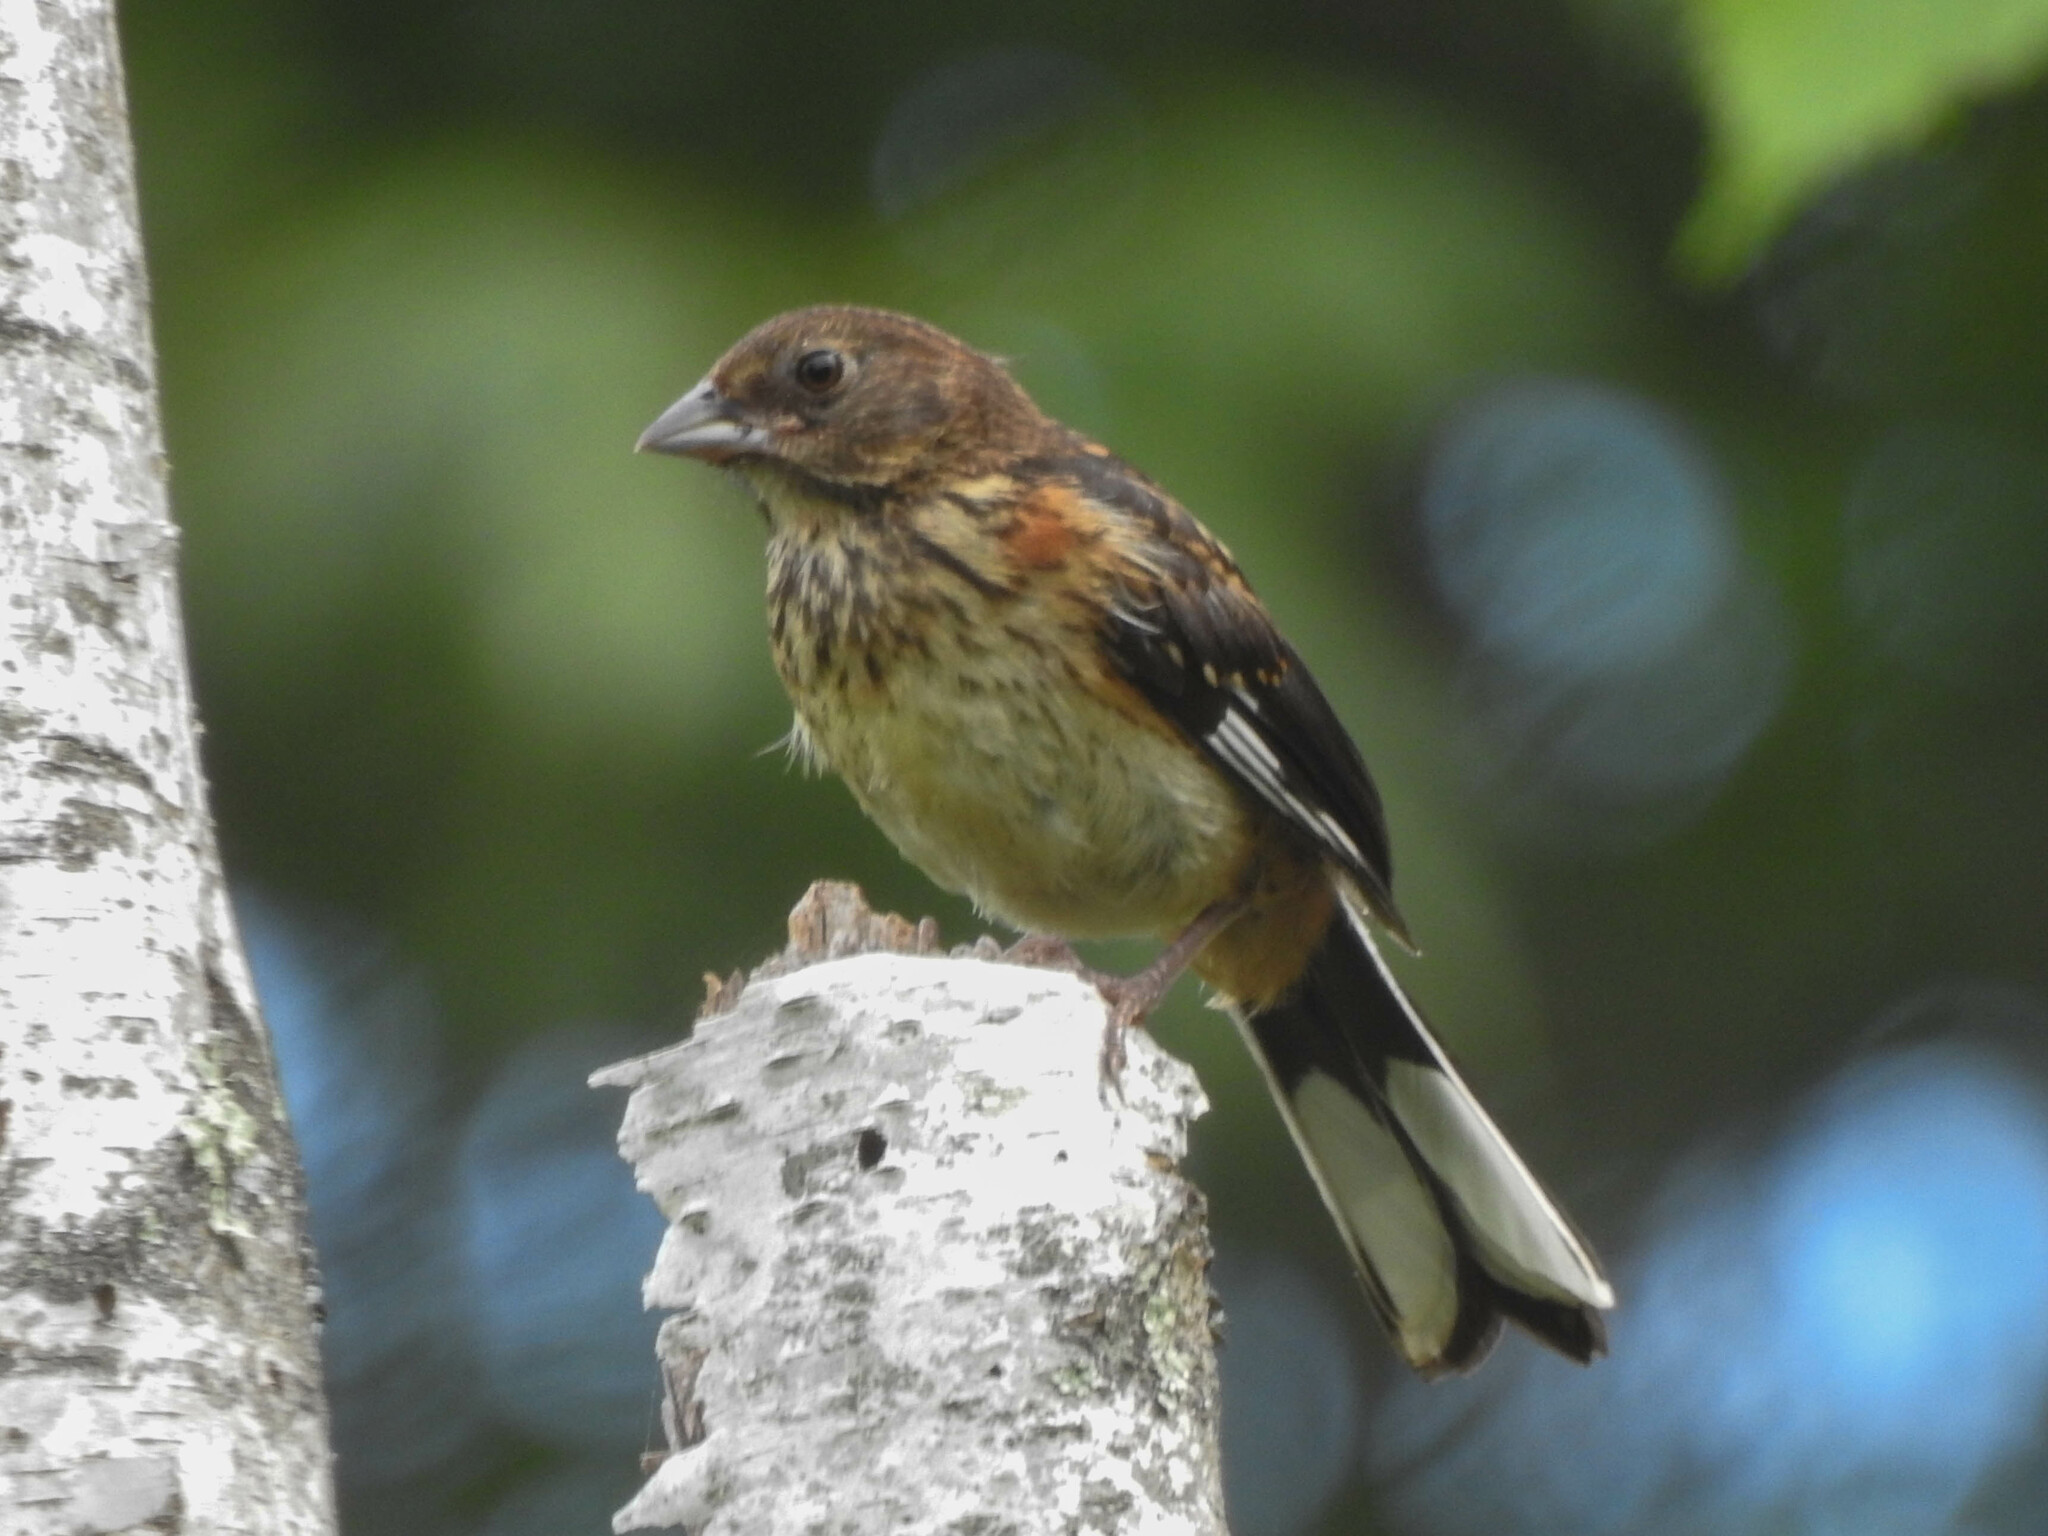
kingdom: Animalia
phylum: Chordata
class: Aves
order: Passeriformes
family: Passerellidae
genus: Pipilo
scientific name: Pipilo erythrophthalmus
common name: Eastern towhee
